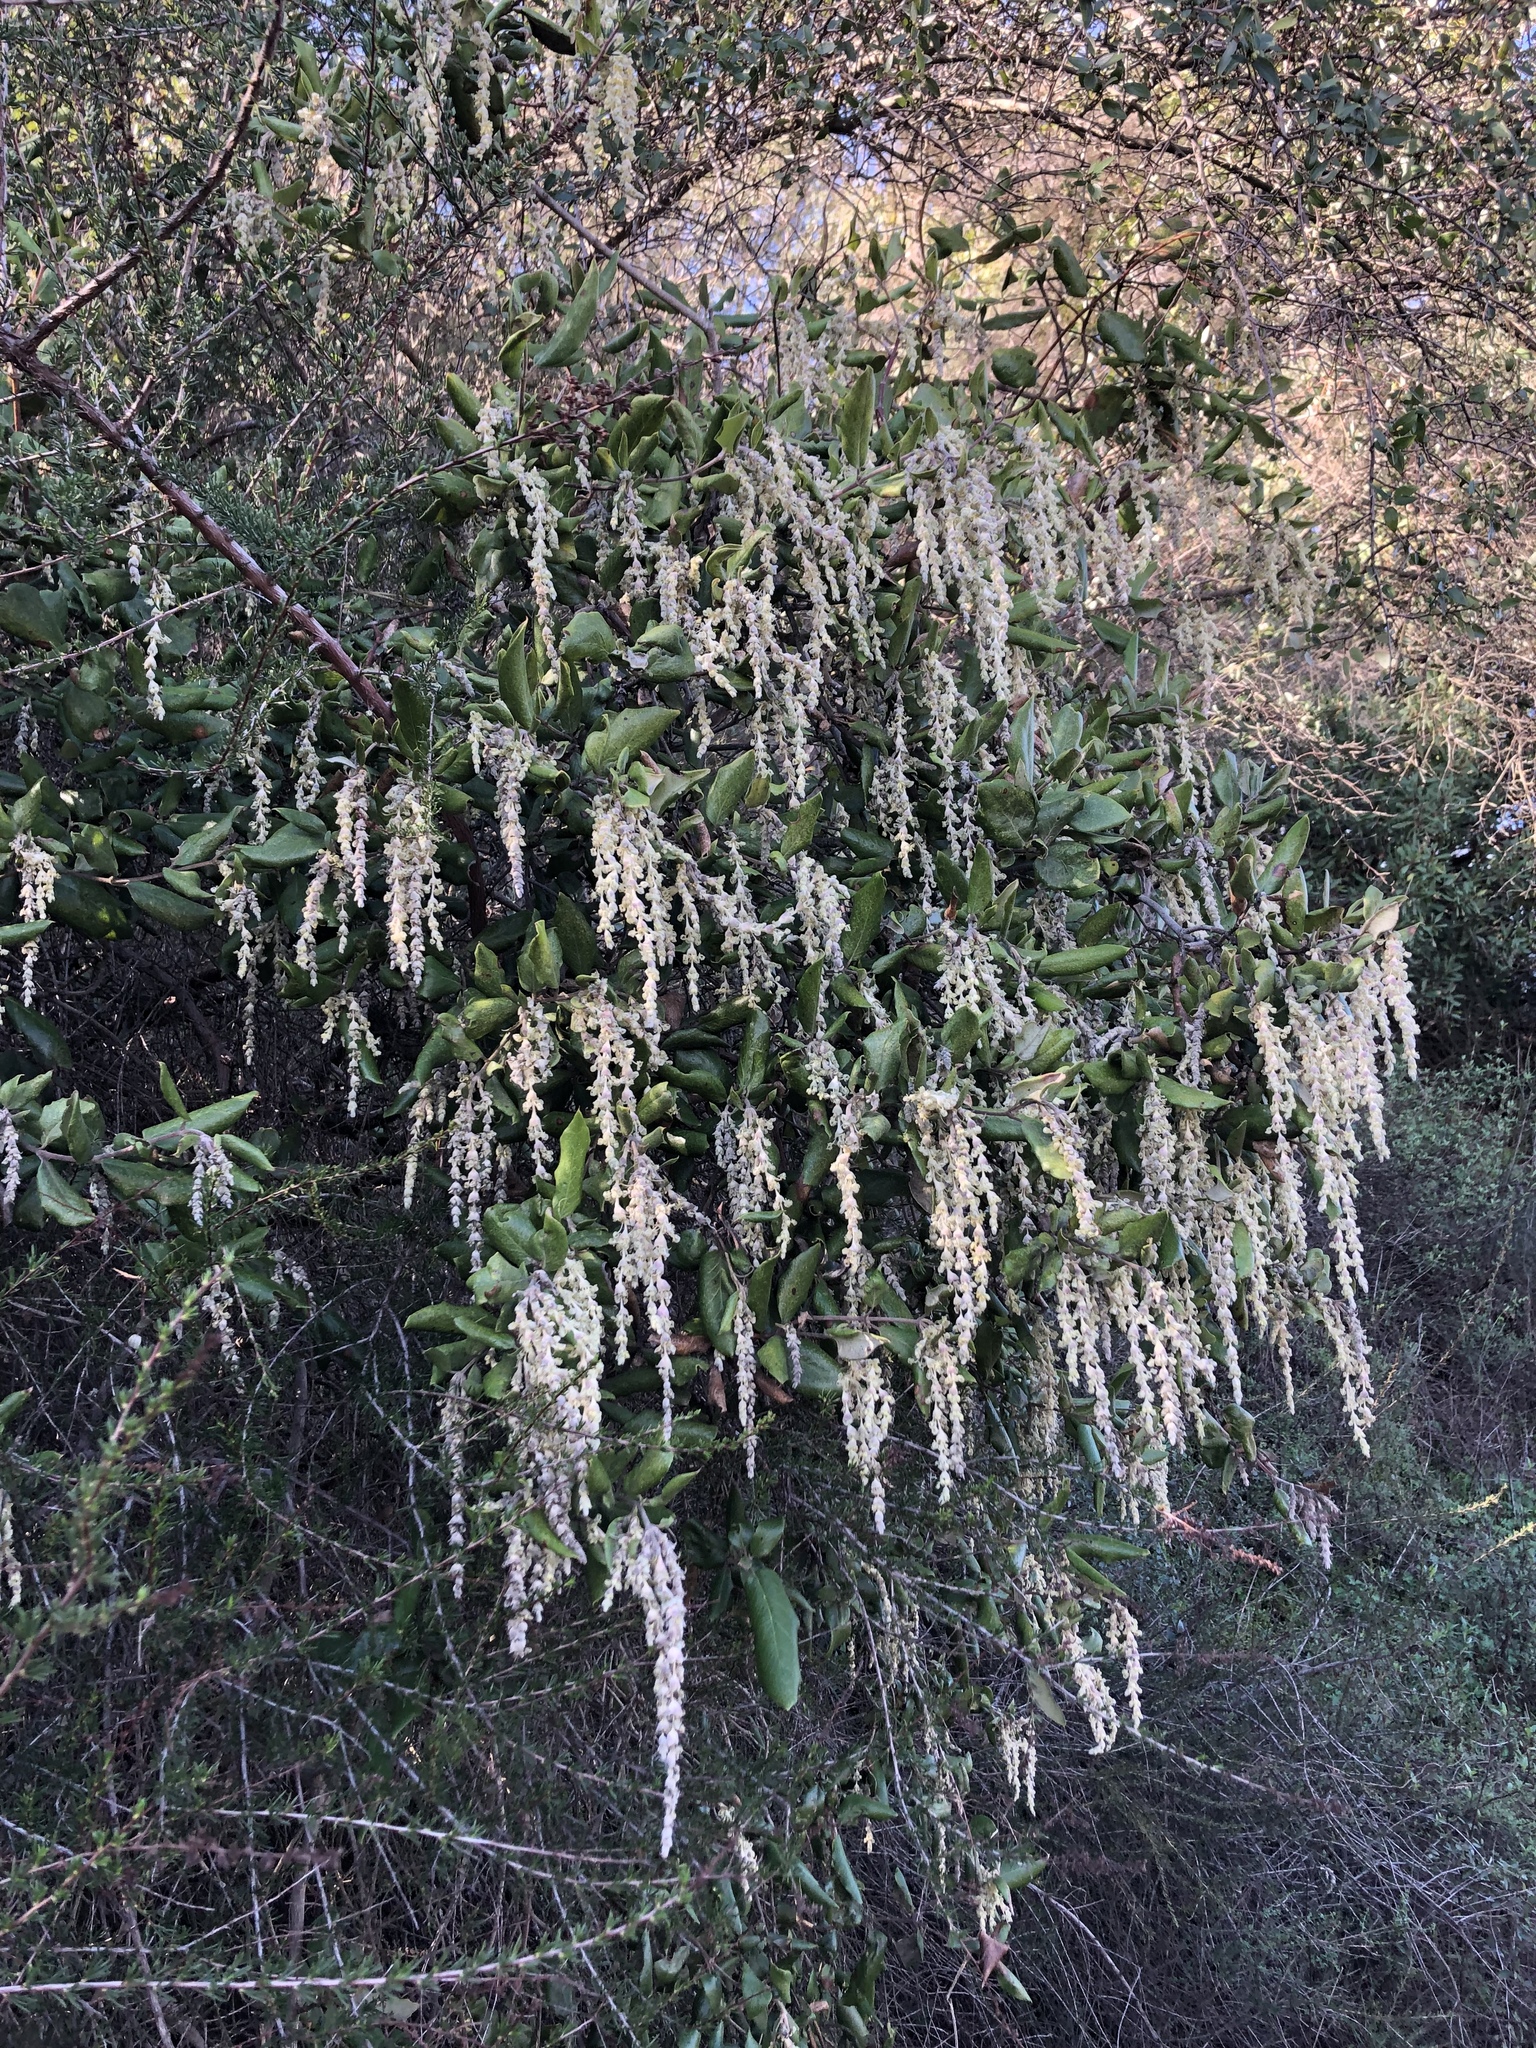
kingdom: Plantae
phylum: Tracheophyta
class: Magnoliopsida
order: Garryales
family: Garryaceae
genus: Garrya
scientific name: Garrya elliptica
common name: Silk-tassel
